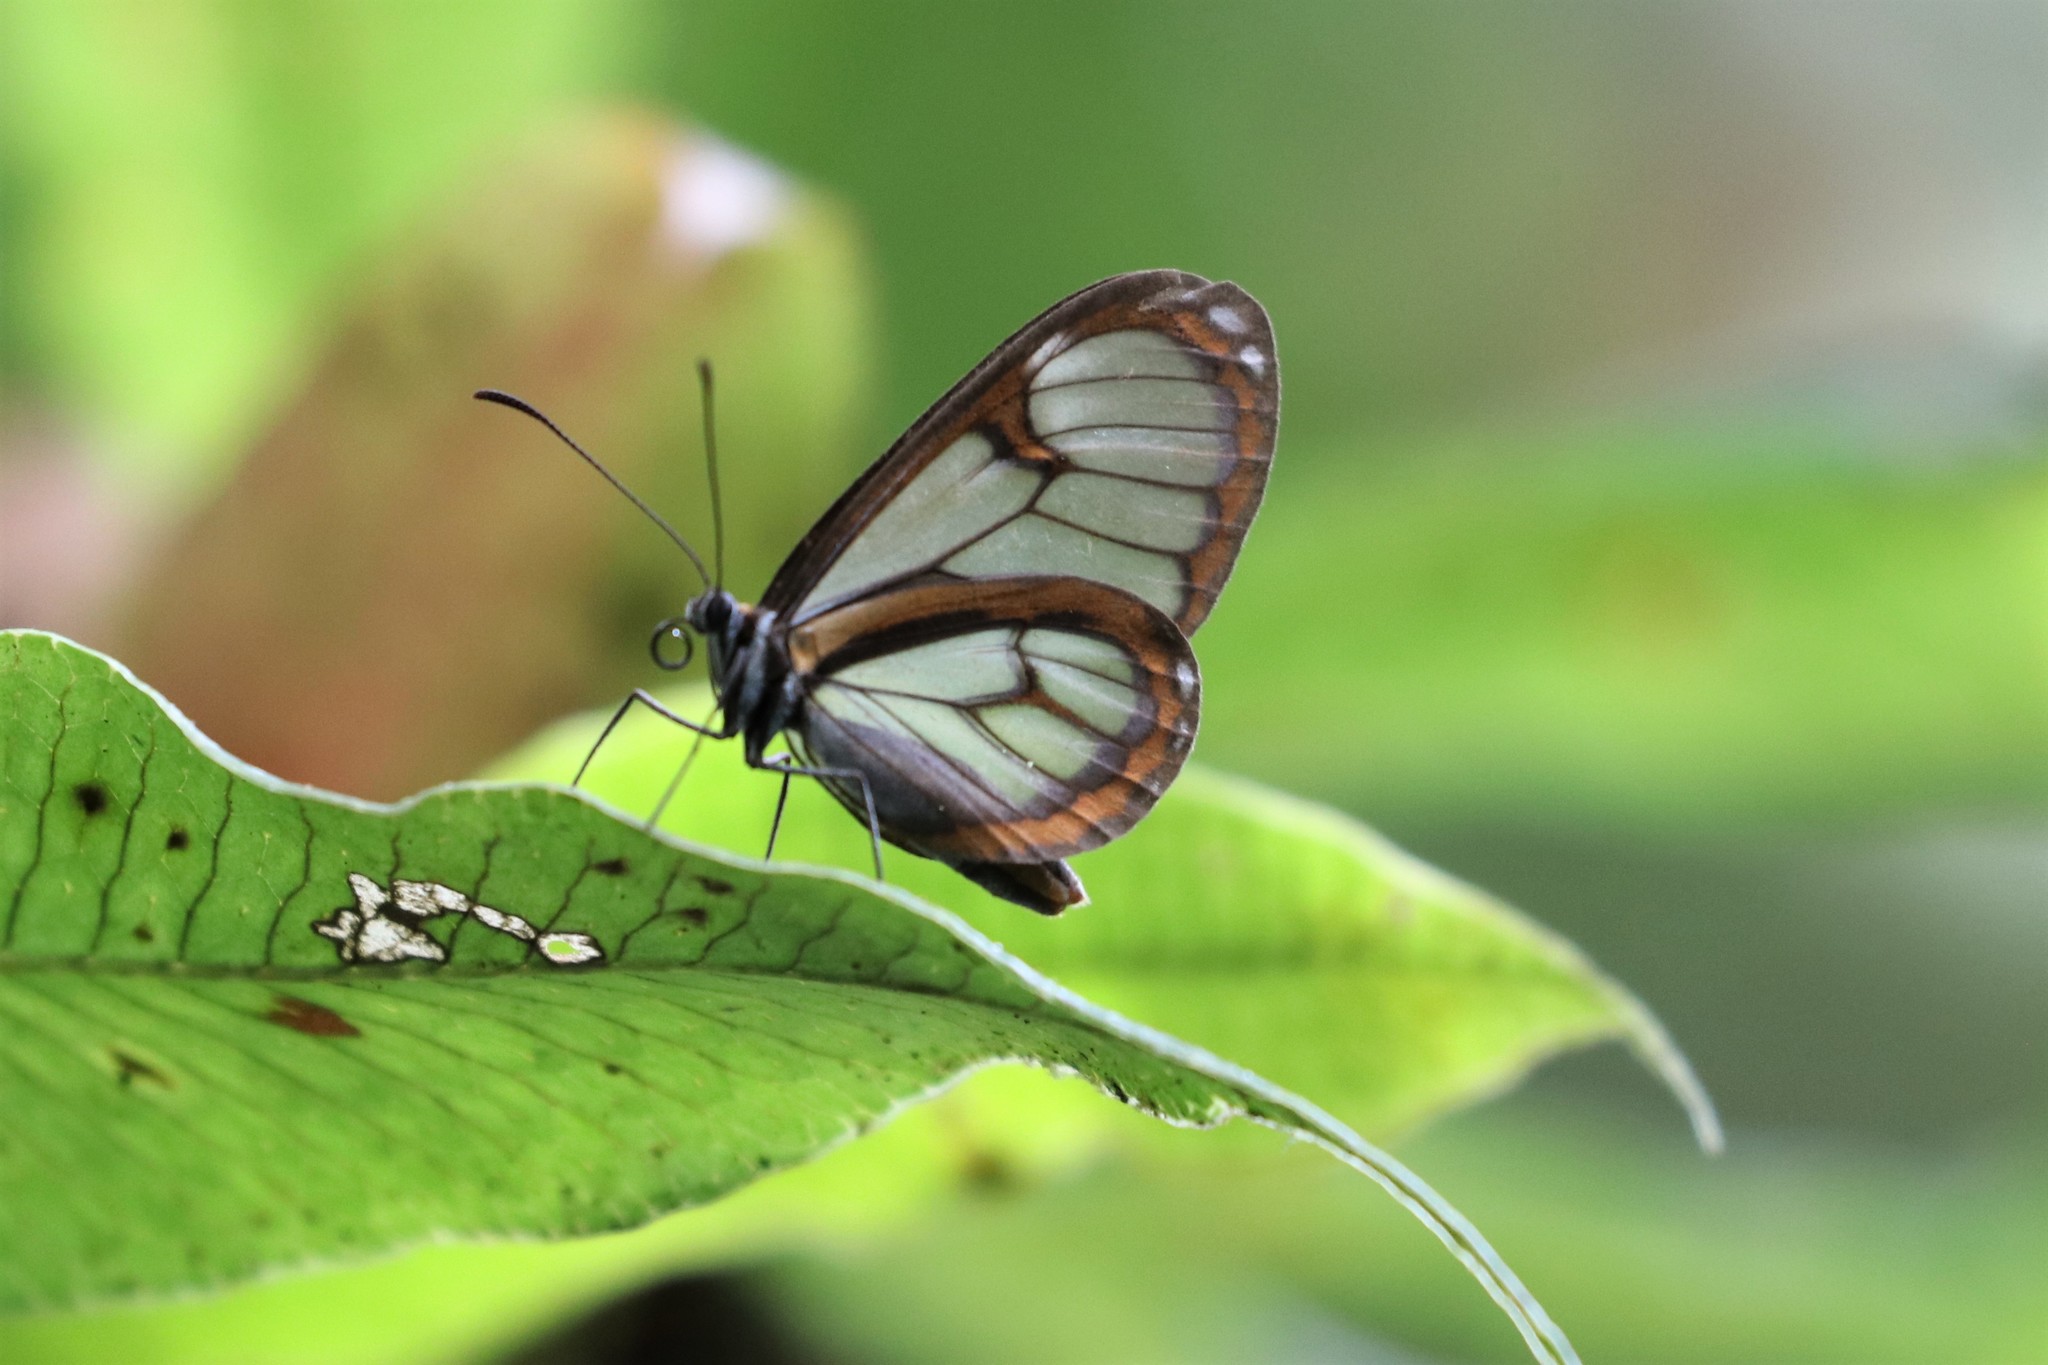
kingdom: Animalia
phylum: Arthropoda
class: Insecta
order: Lepidoptera
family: Nymphalidae
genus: Ithomia
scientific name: Ithomia terra
